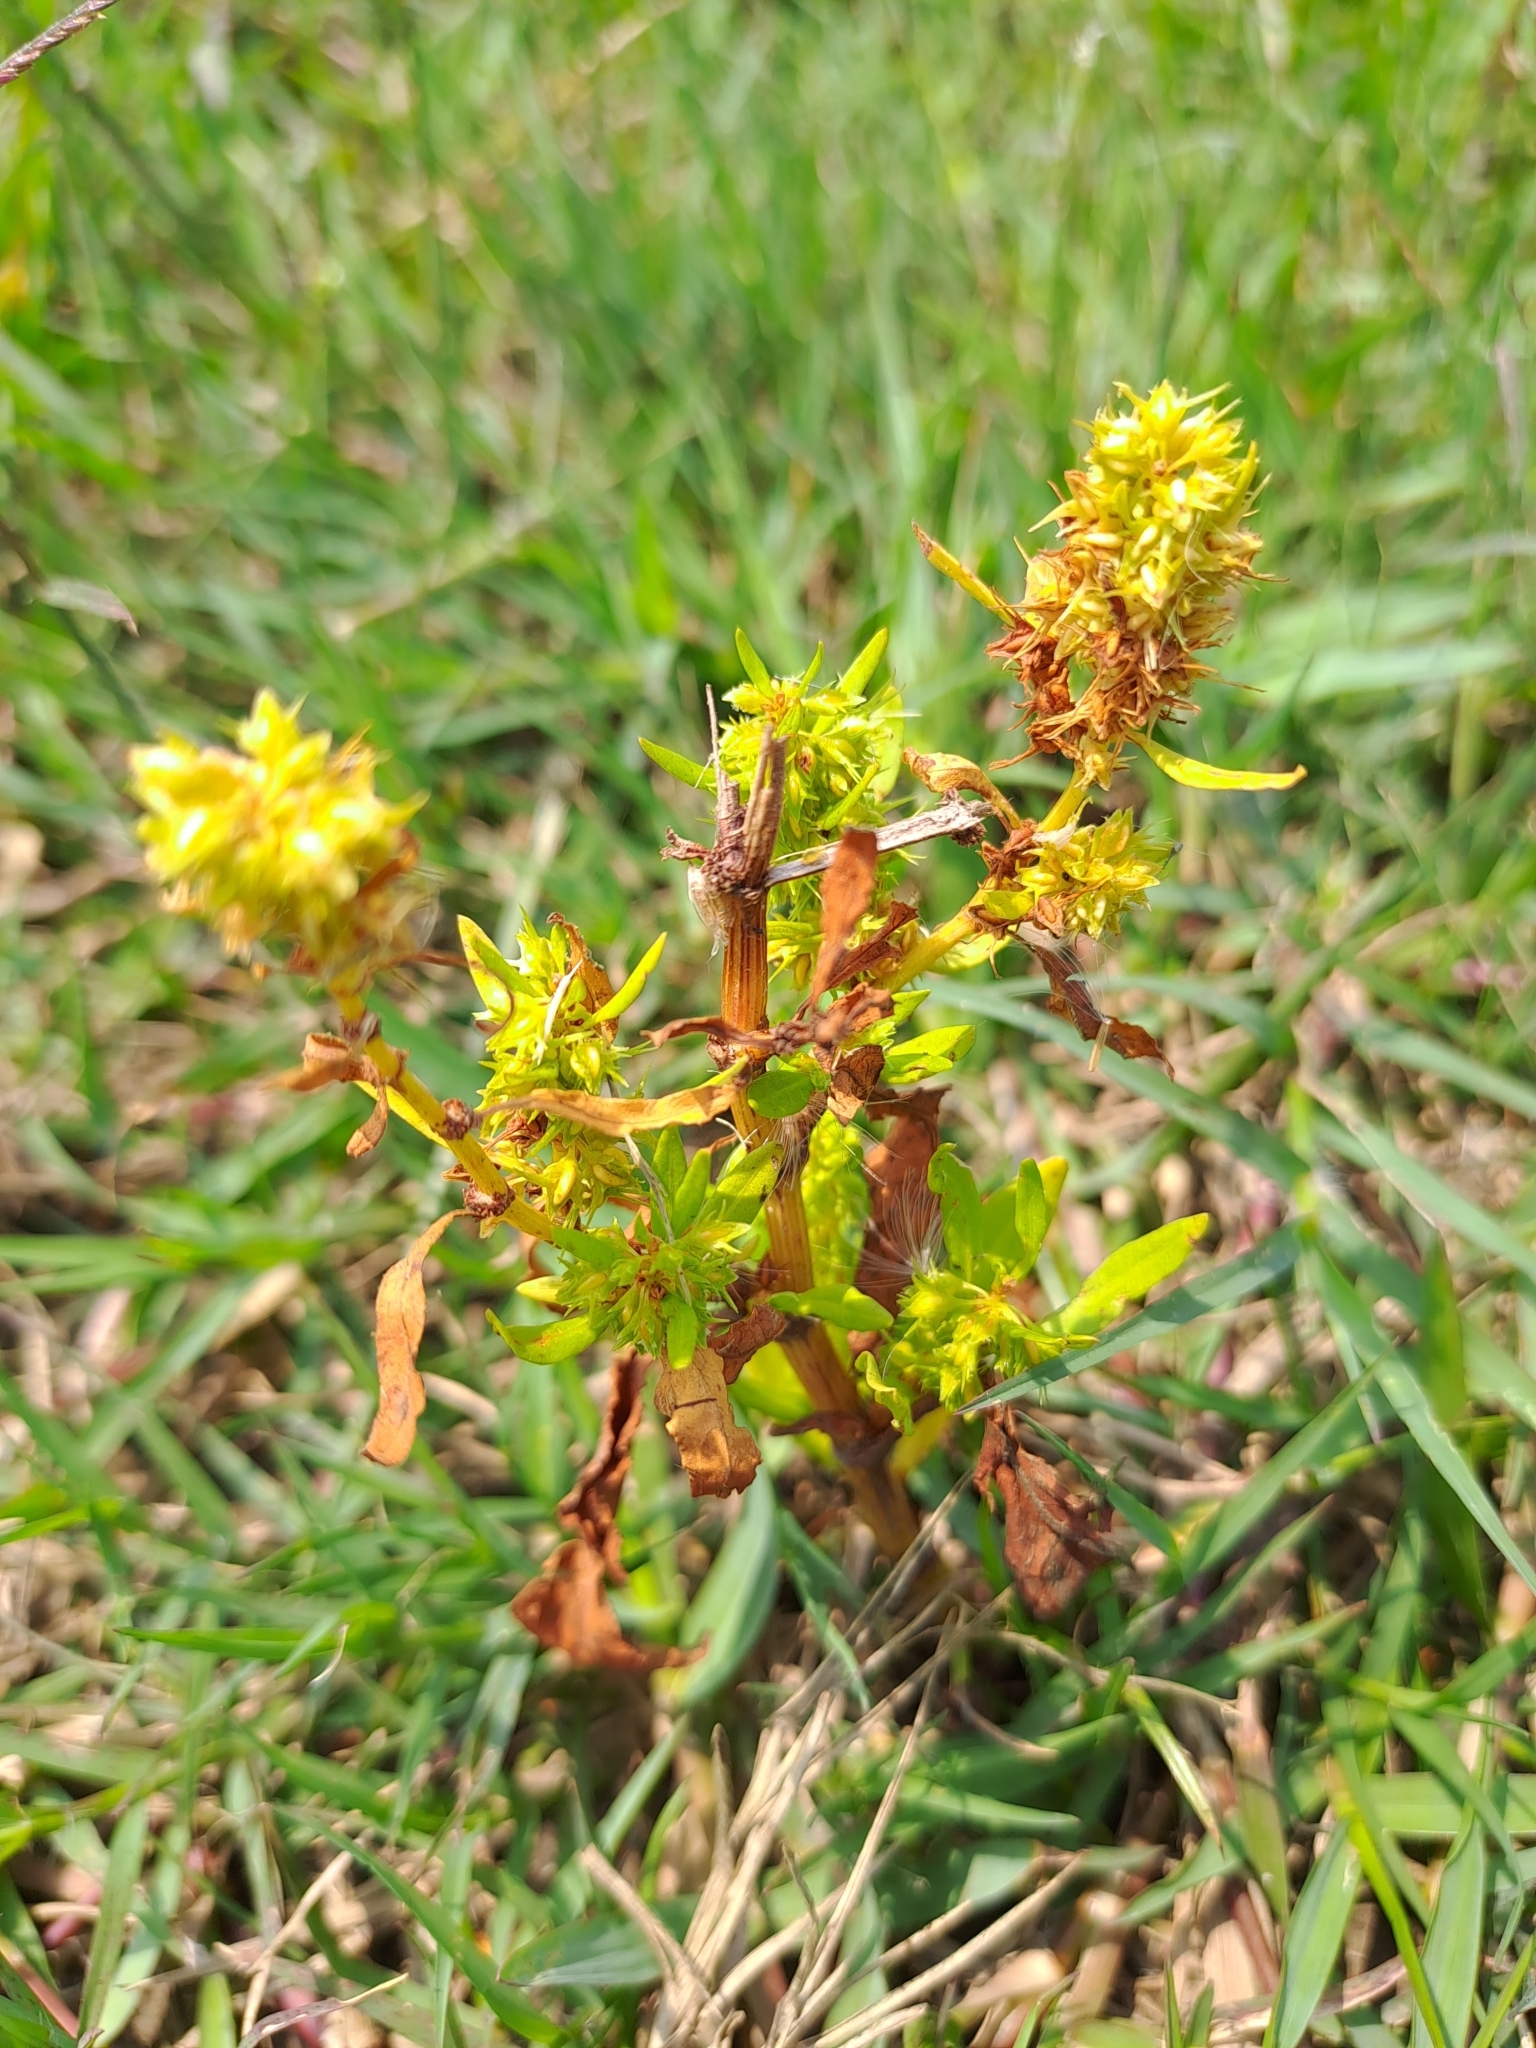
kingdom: Plantae
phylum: Tracheophyta
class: Magnoliopsida
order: Caryophyllales
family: Polygonaceae
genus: Rumex
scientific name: Rumex dentatus
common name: Toothed dock
